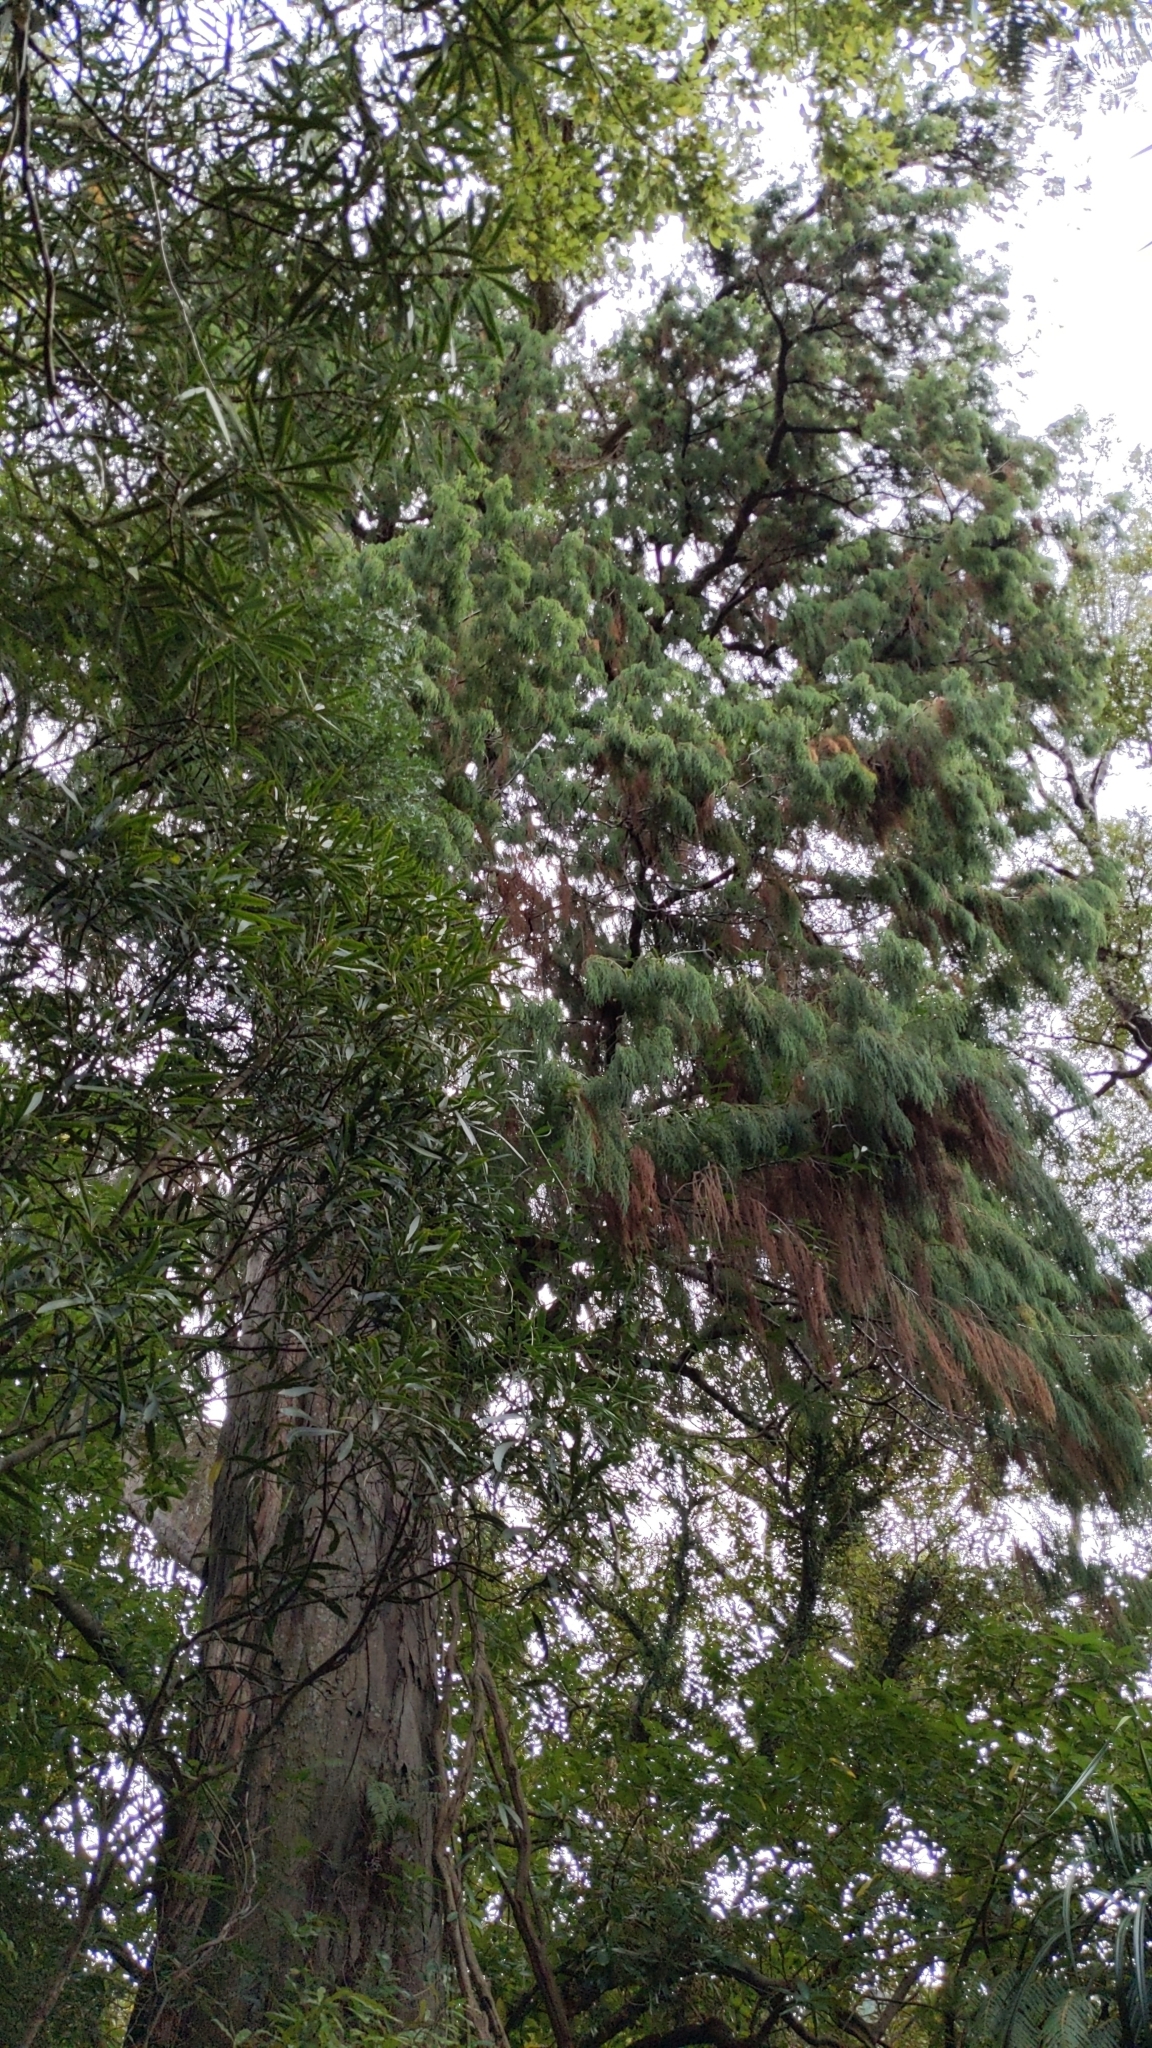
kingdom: Plantae
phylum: Tracheophyta
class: Pinopsida
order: Pinales
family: Podocarpaceae
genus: Dacrydium
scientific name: Dacrydium cupressinum
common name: Red pine
